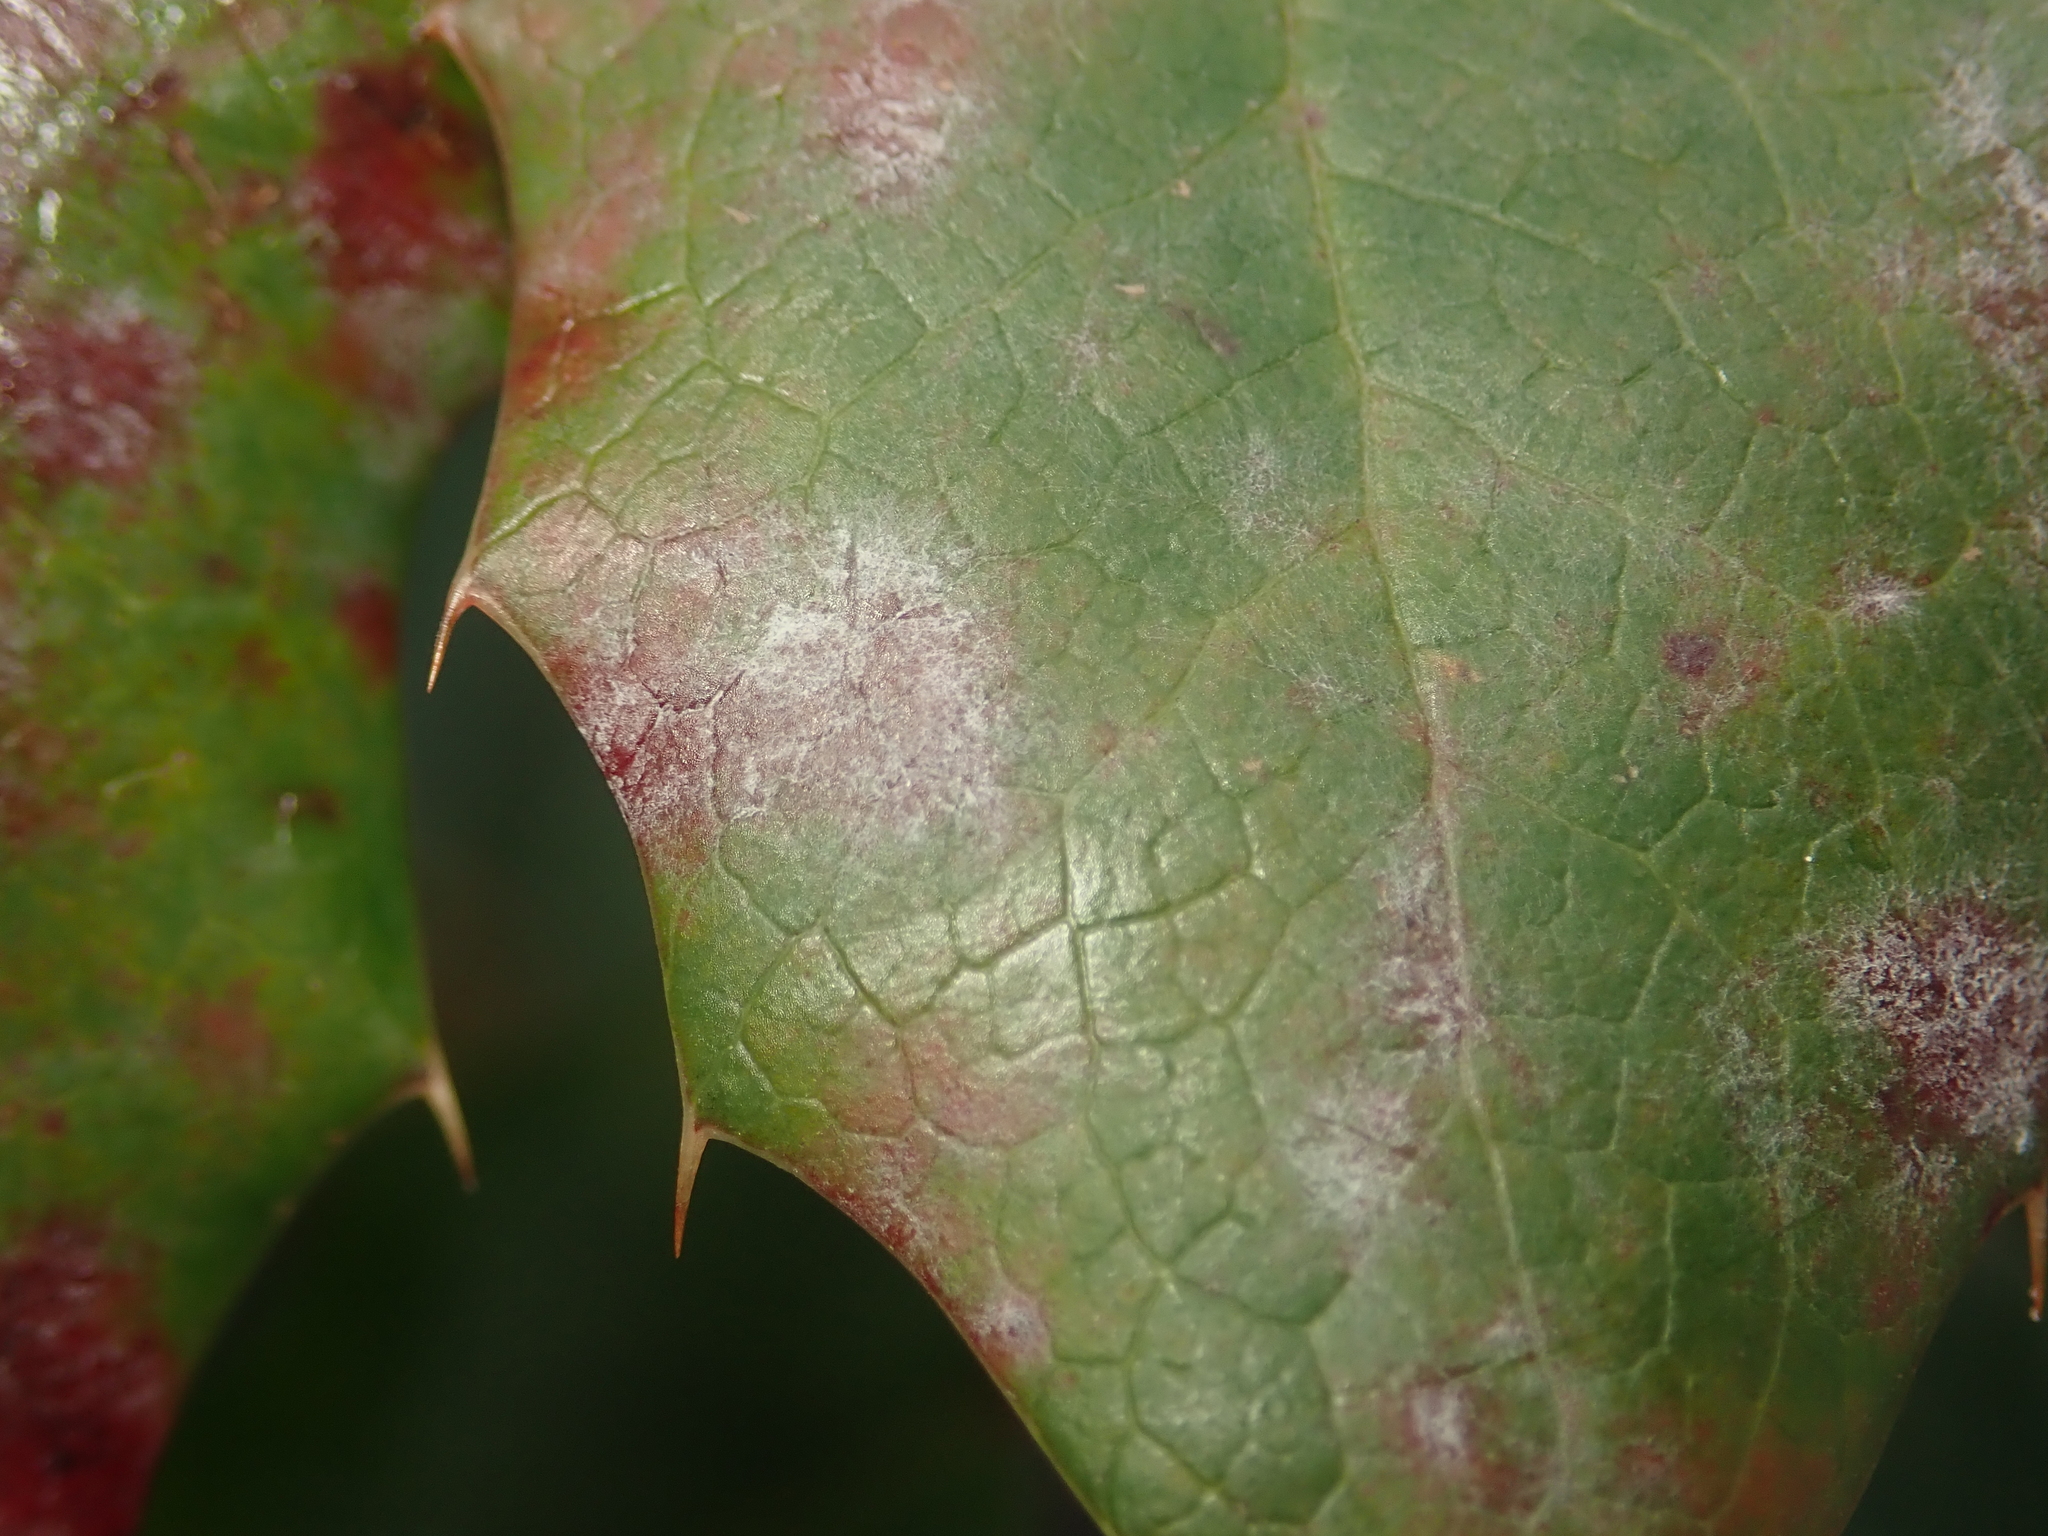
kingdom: Fungi
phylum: Ascomycota
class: Leotiomycetes
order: Helotiales
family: Erysiphaceae
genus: Erysiphe
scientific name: Erysiphe berberidis
